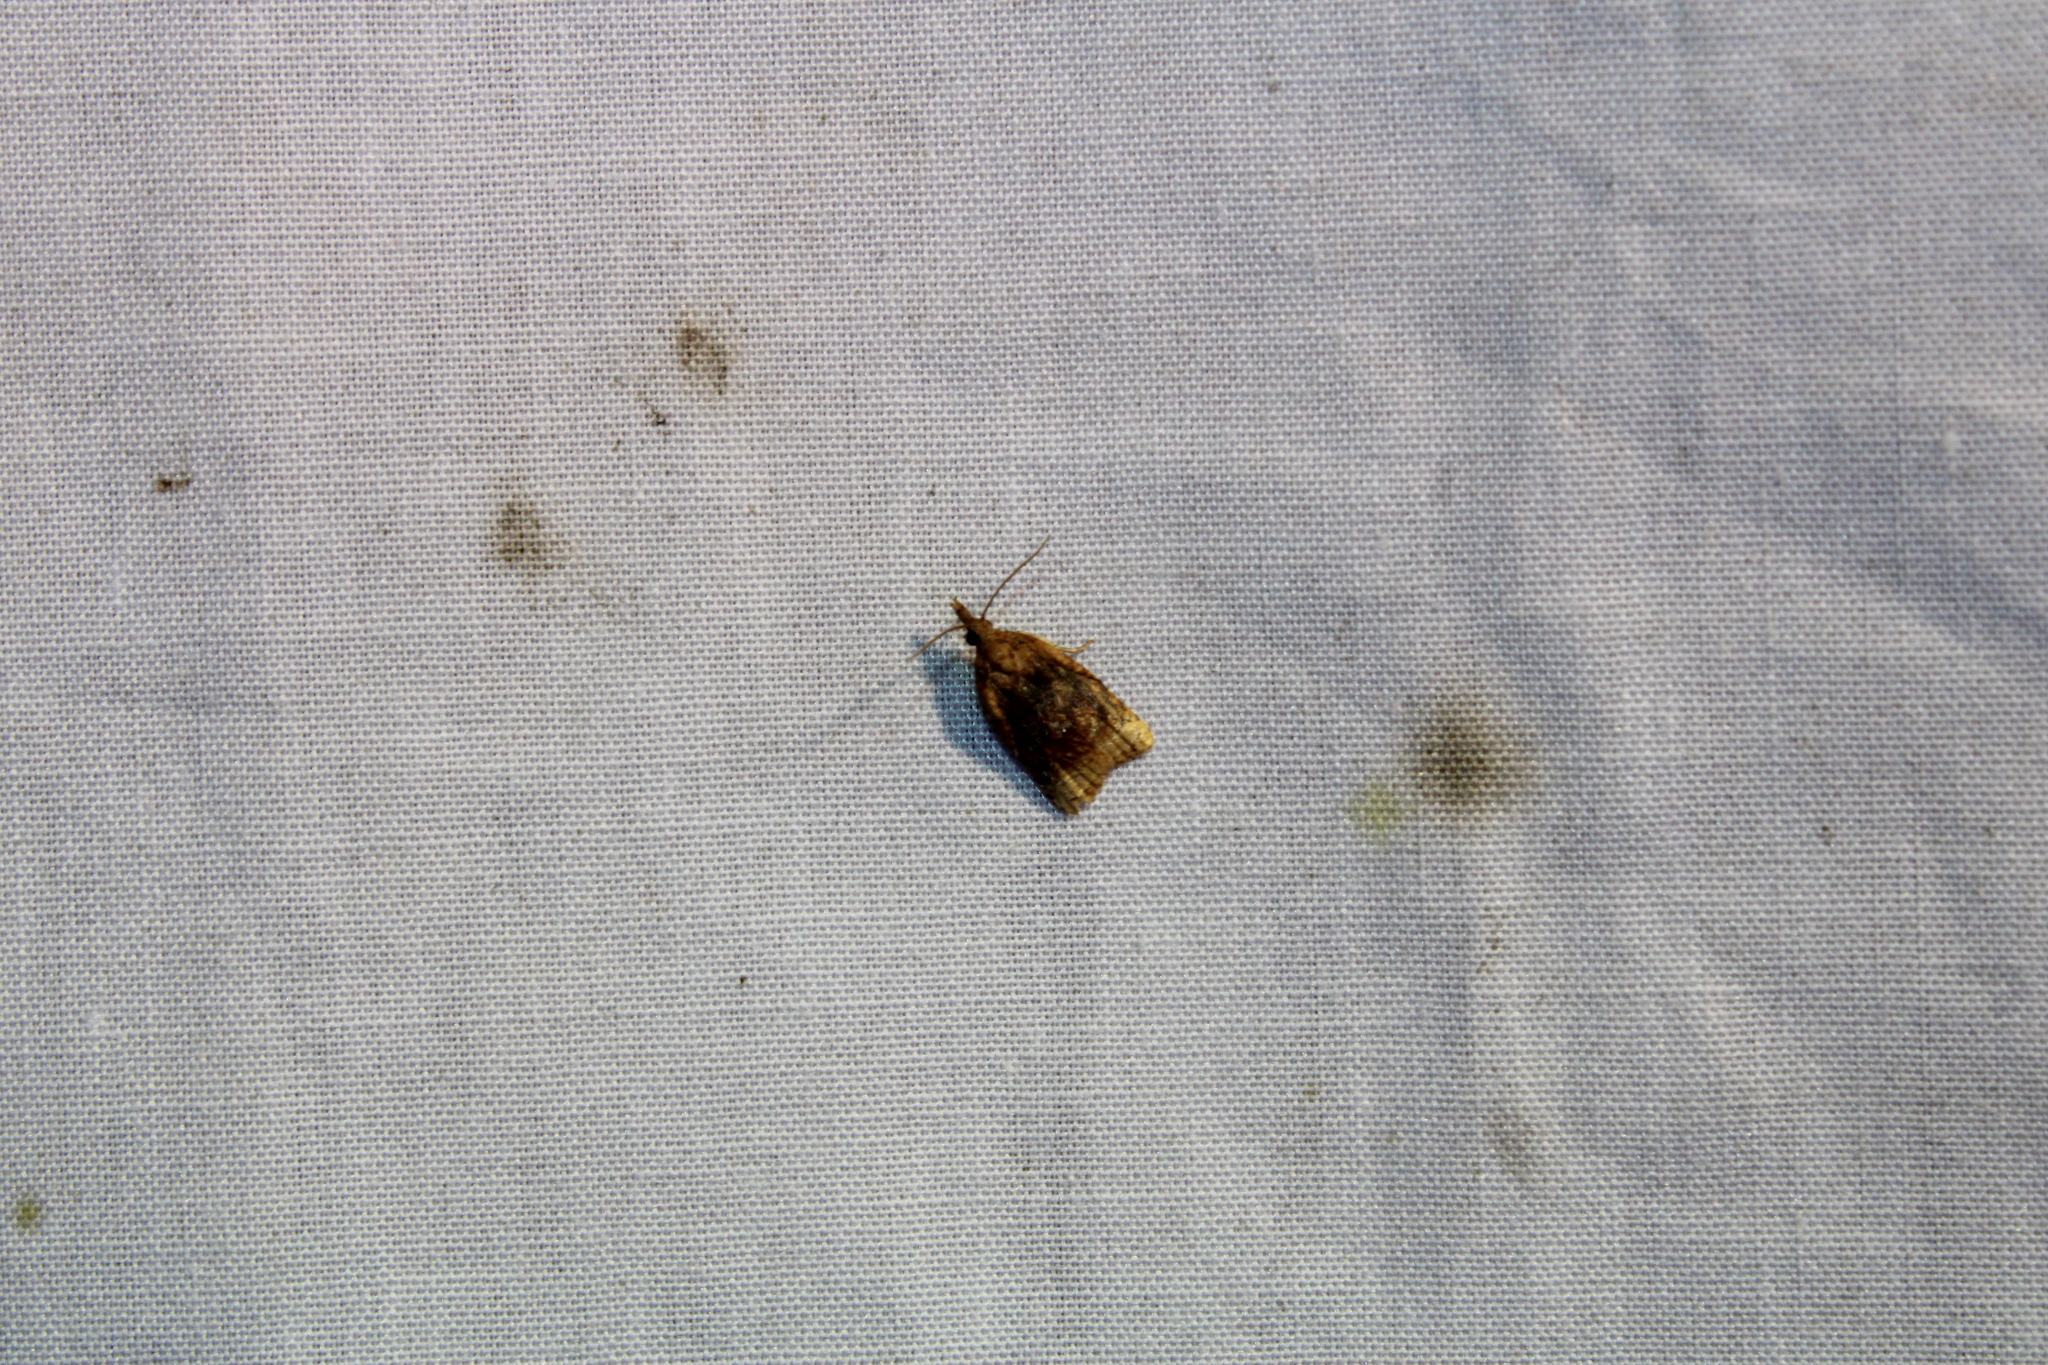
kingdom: Animalia
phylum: Arthropoda
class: Insecta
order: Lepidoptera
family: Tortricidae
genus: Platynota
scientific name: Platynota flavedana
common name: Black-shaded platynota moth
